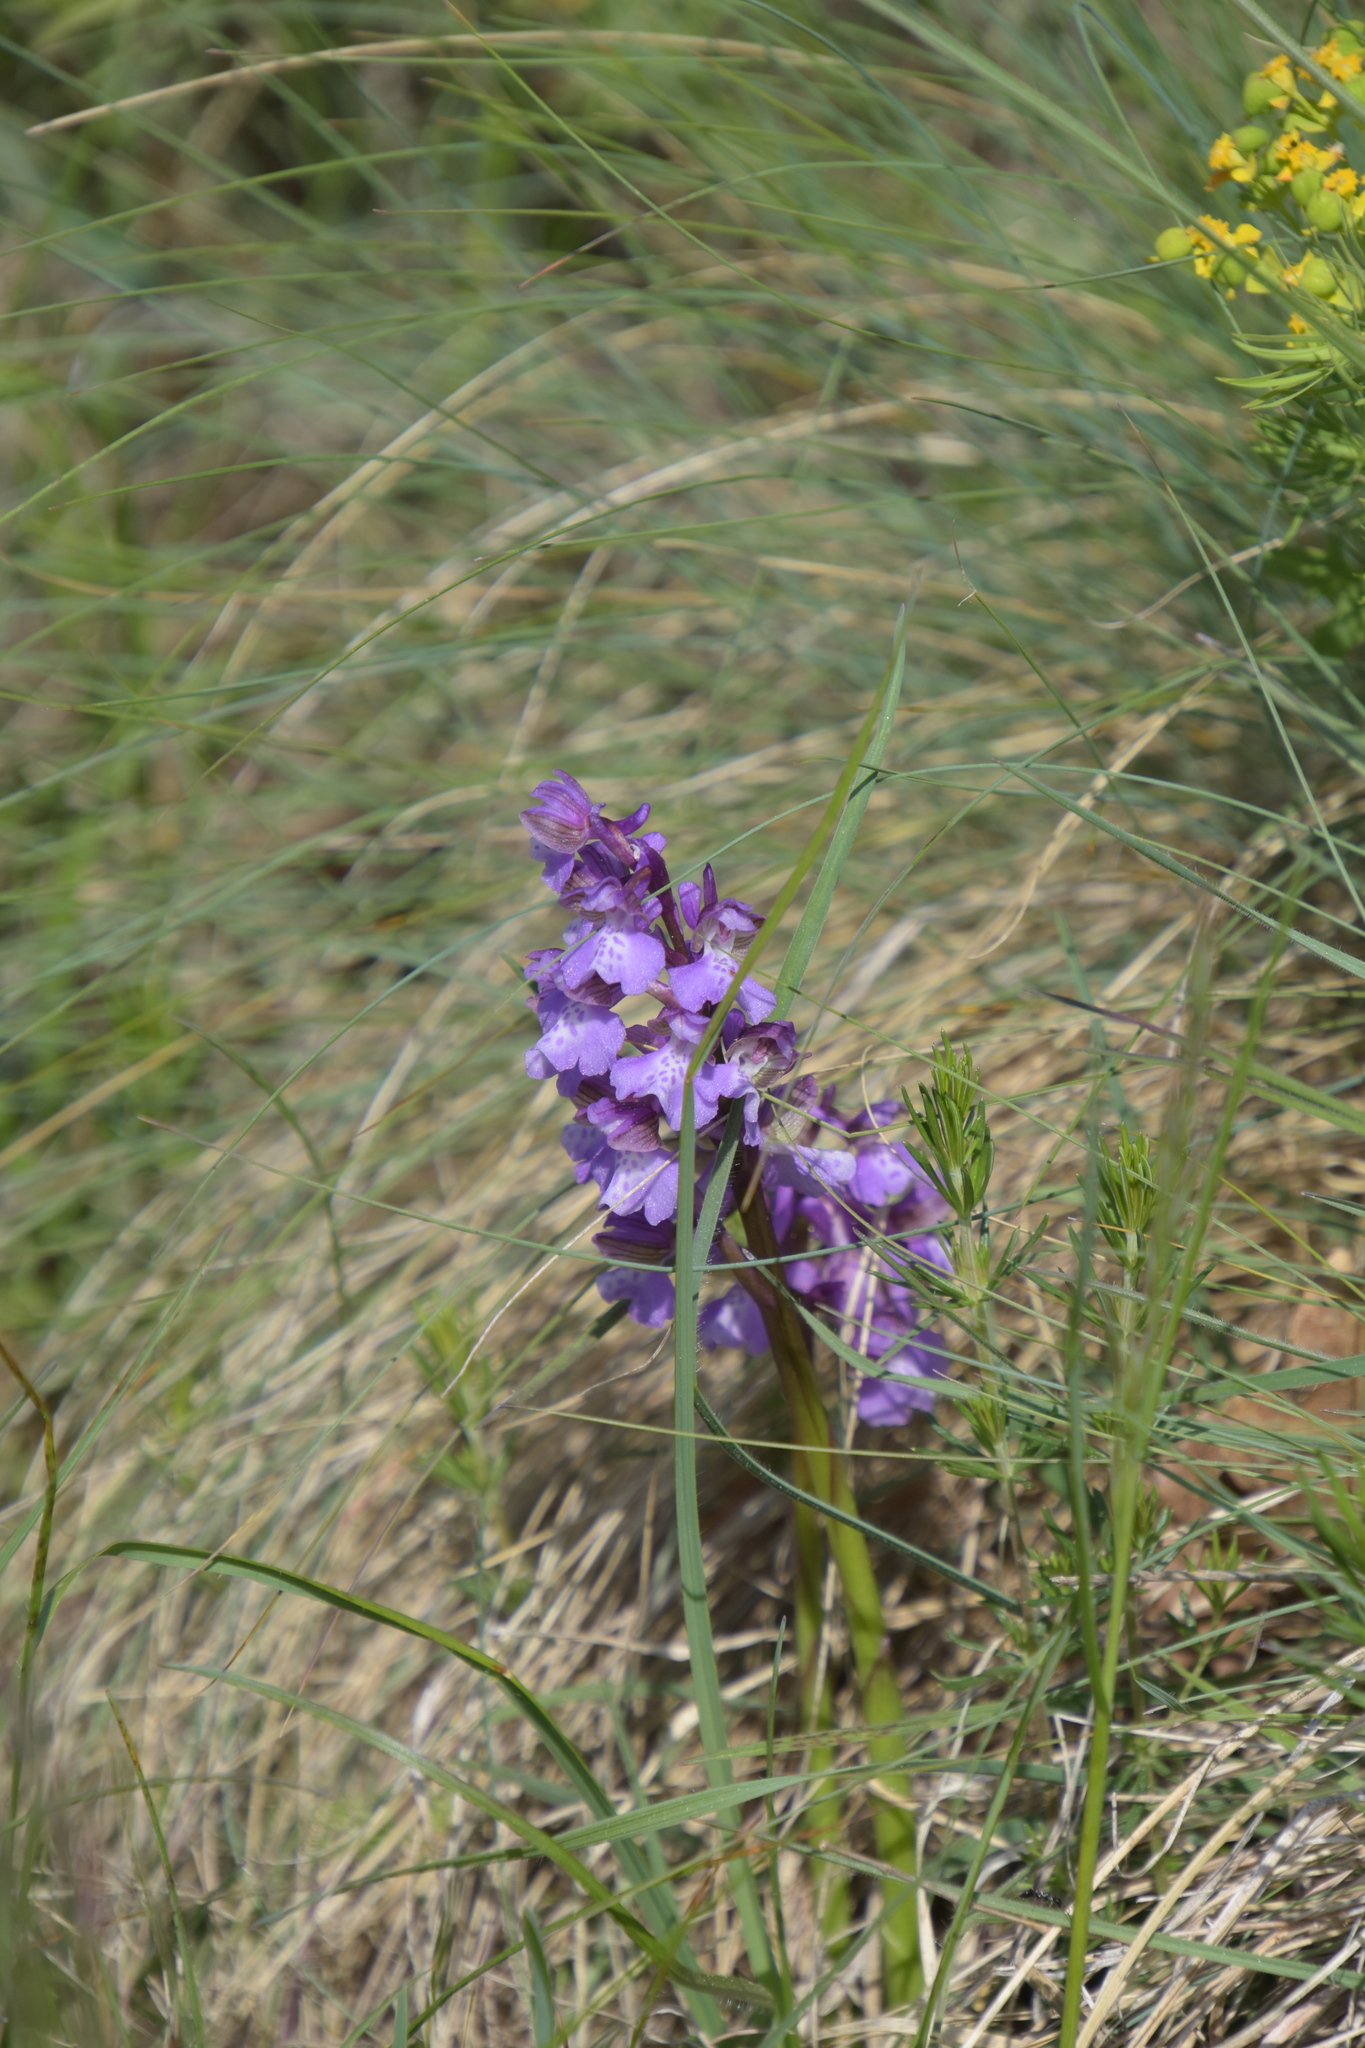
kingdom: Plantae
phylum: Tracheophyta
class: Liliopsida
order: Asparagales
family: Orchidaceae
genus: Anacamptis
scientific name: Anacamptis morio
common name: Green-winged orchid
